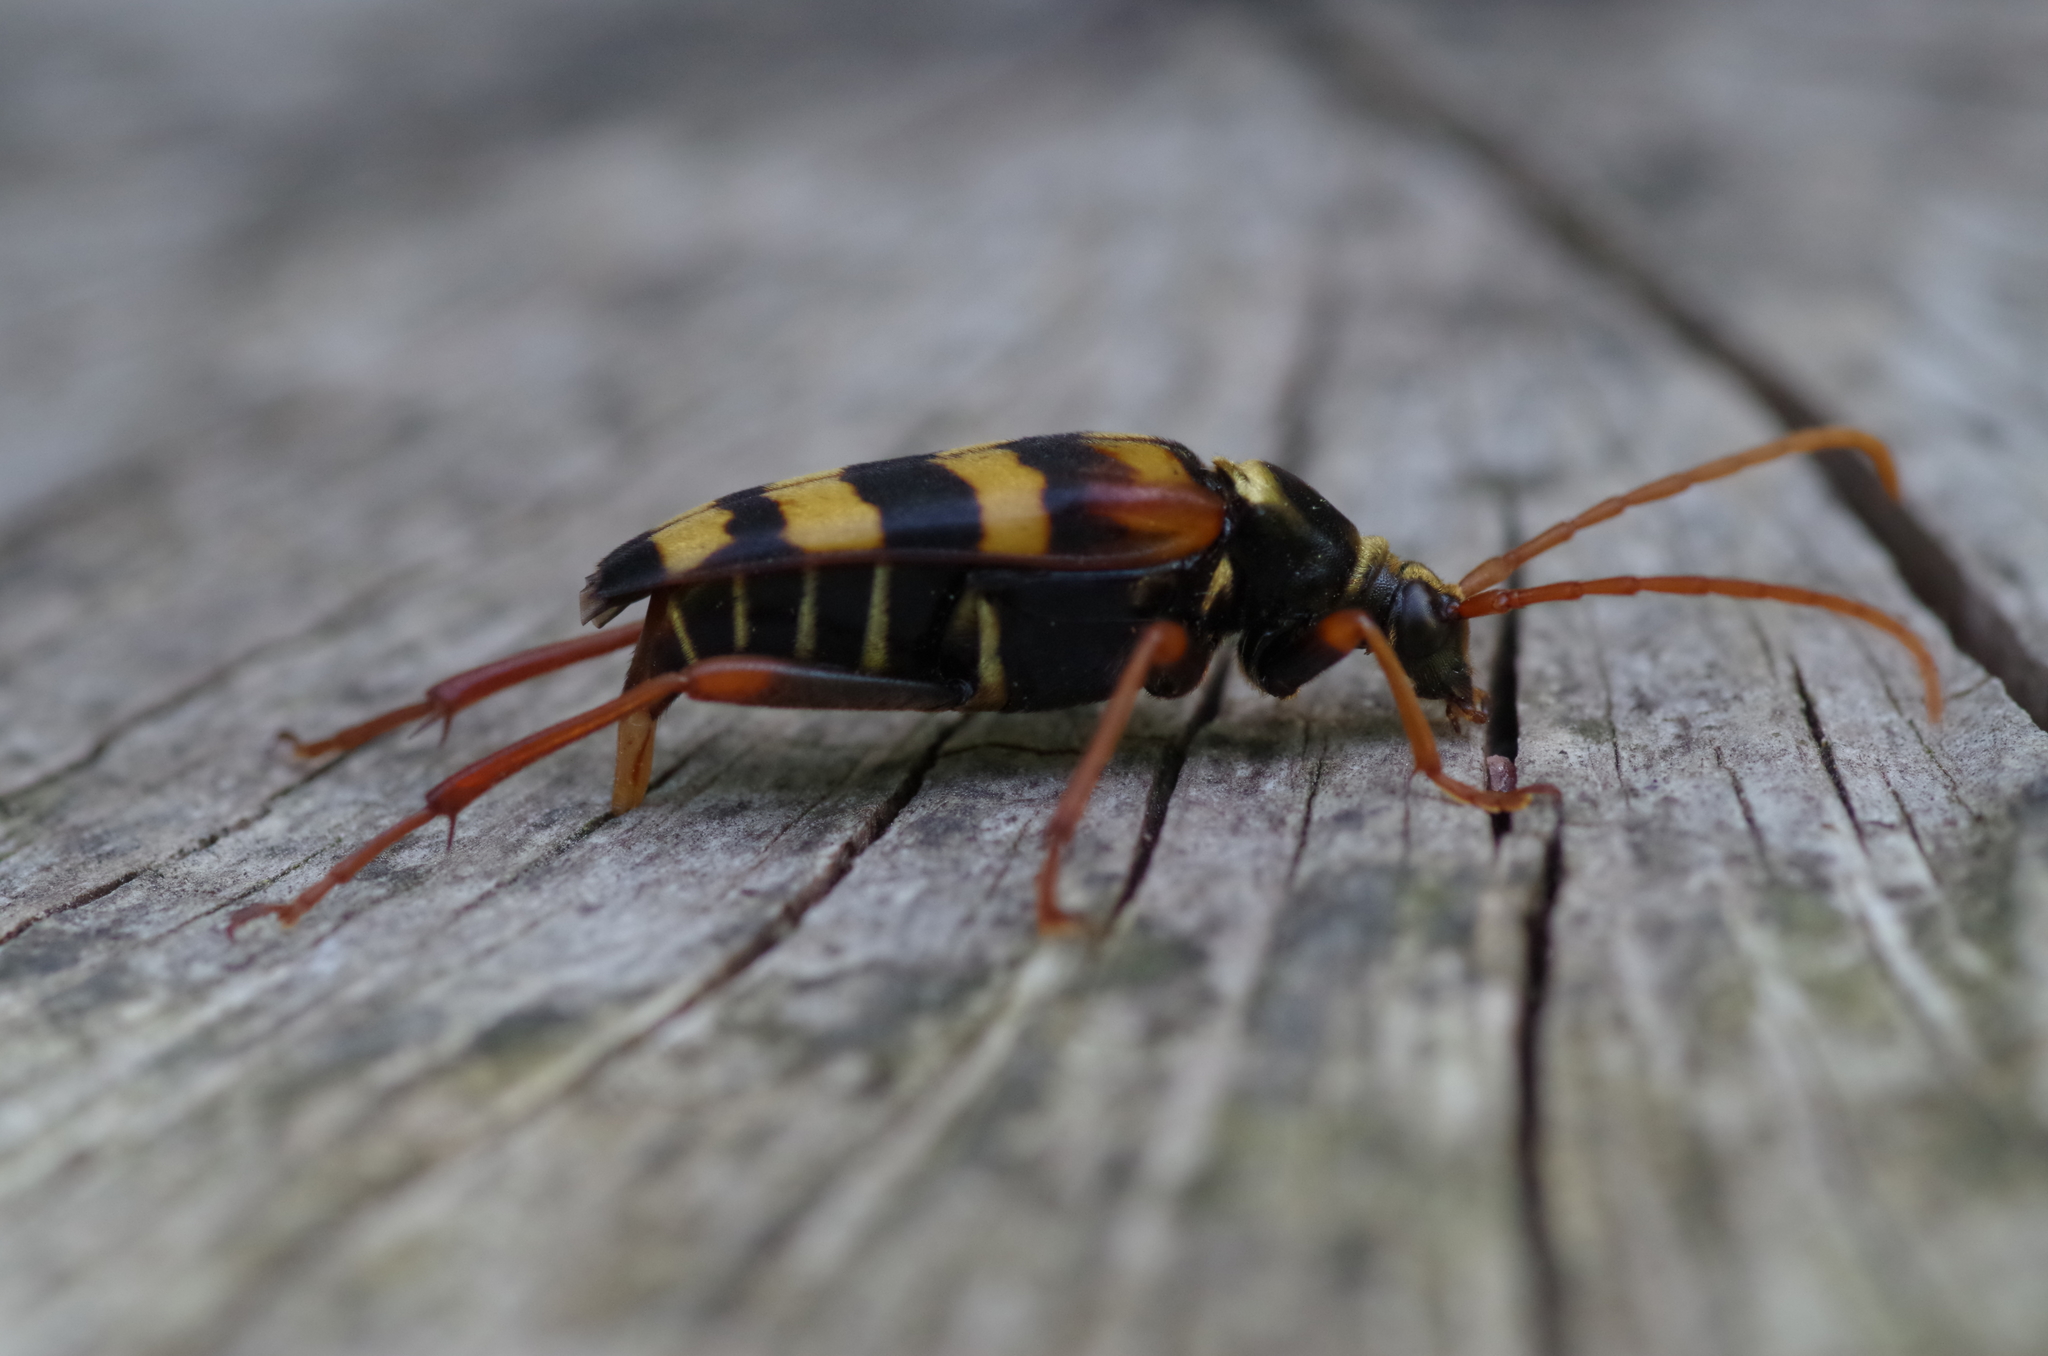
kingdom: Animalia
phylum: Arthropoda
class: Insecta
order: Coleoptera
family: Cerambycidae
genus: Leptura
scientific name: Leptura aurulenta
